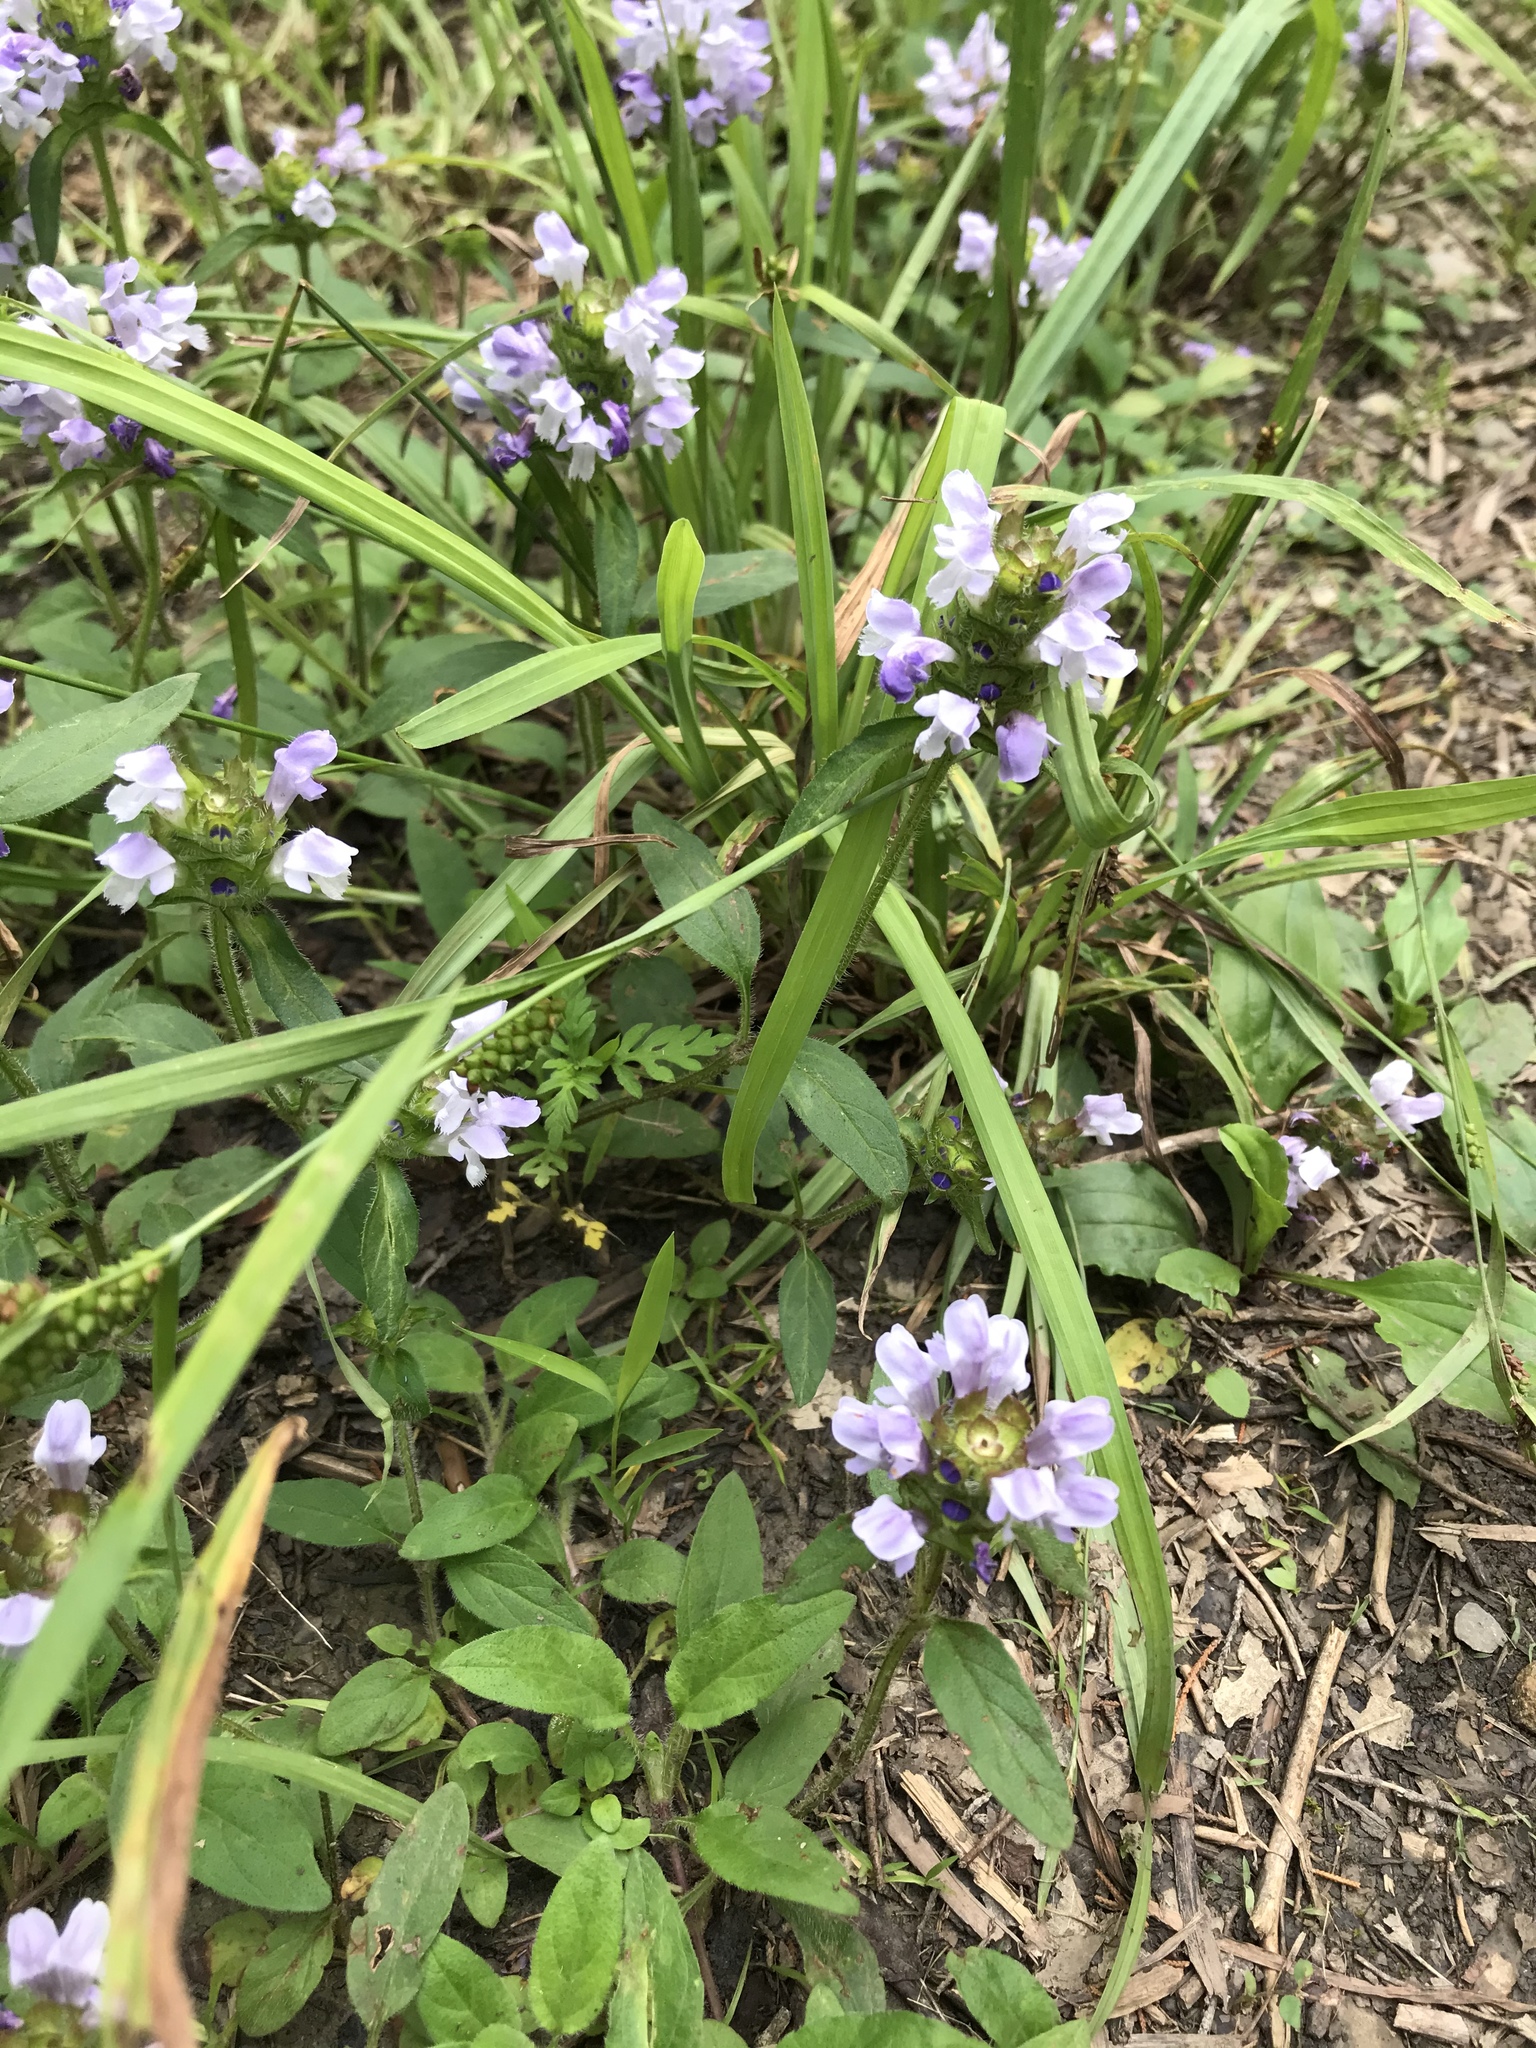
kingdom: Plantae
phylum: Tracheophyta
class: Magnoliopsida
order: Lamiales
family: Lamiaceae
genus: Prunella
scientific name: Prunella vulgaris
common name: Heal-all
